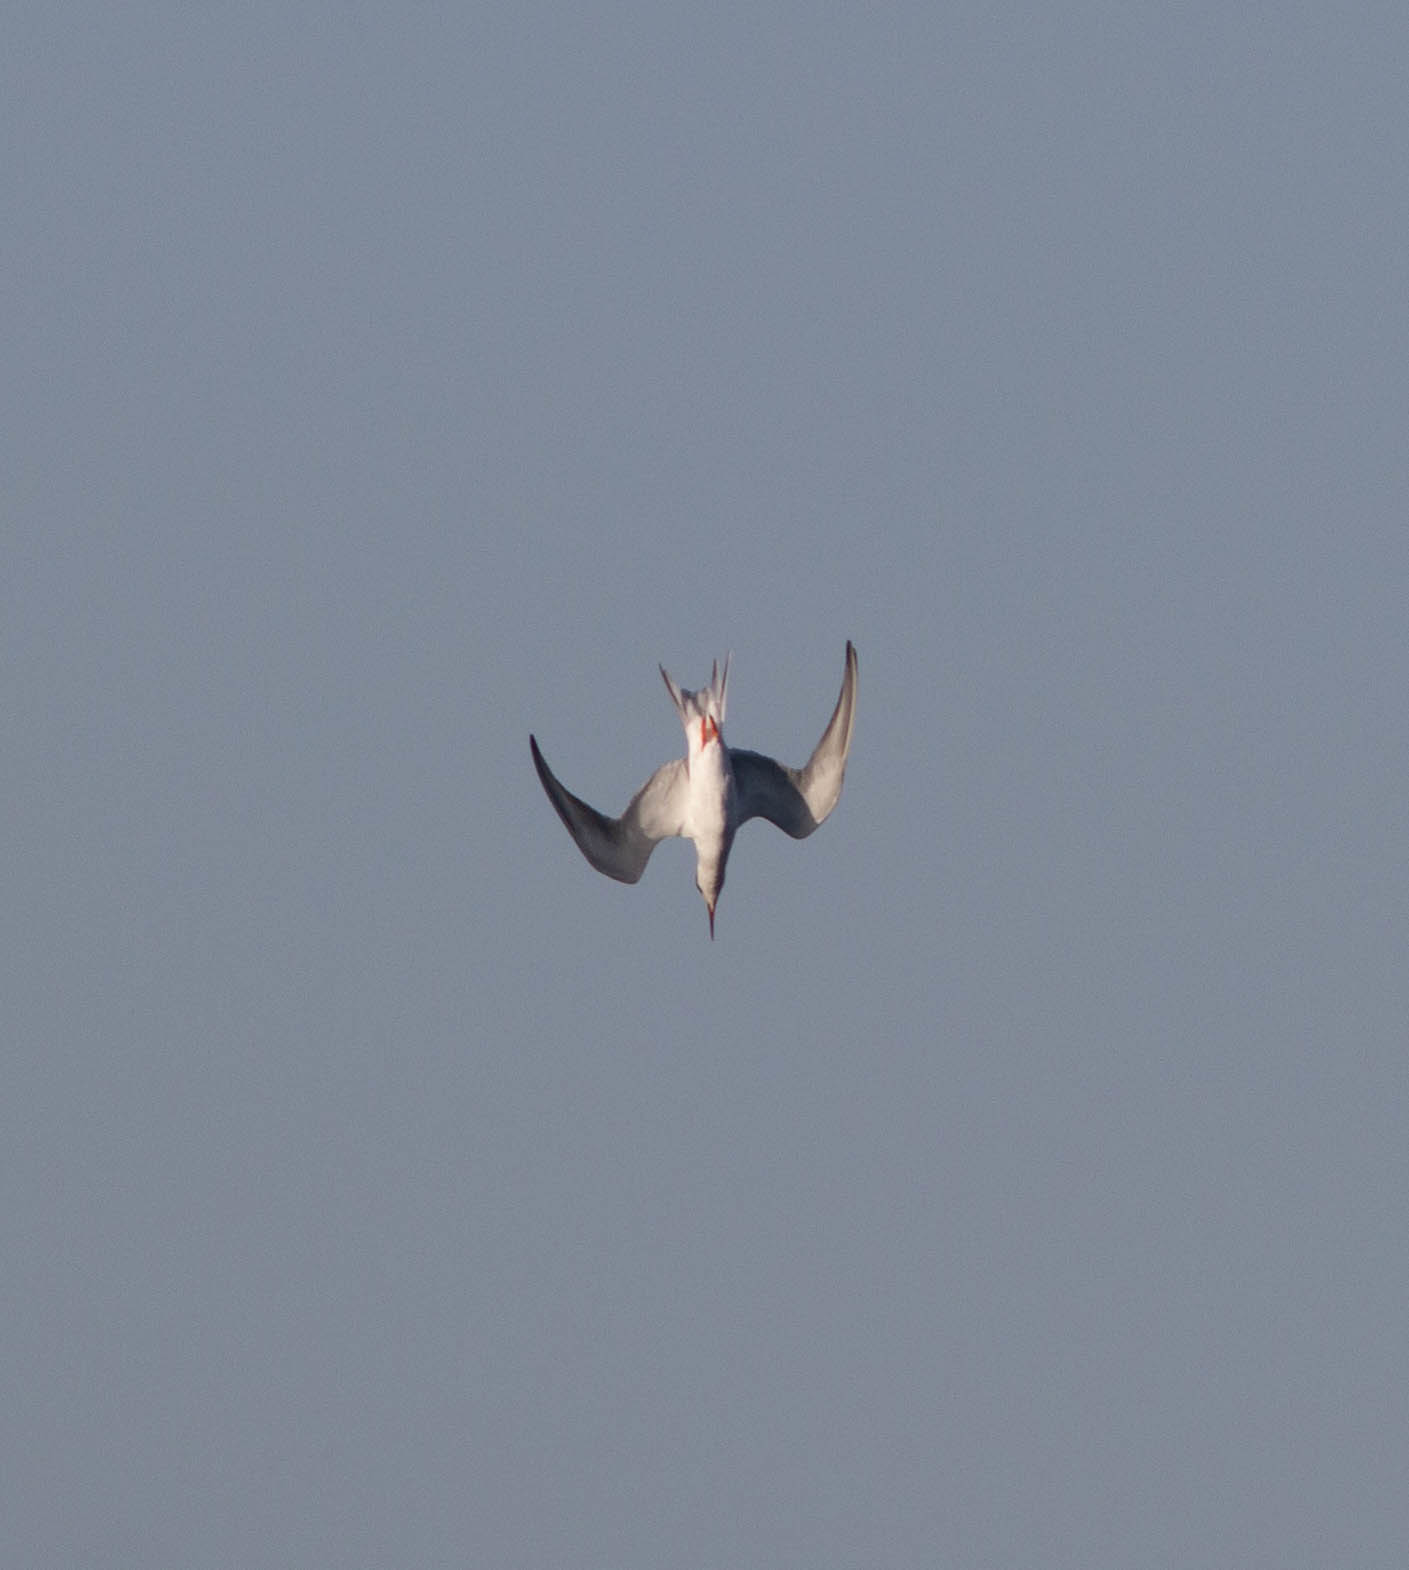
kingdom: Animalia
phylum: Chordata
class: Aves
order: Charadriiformes
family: Laridae
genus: Sterna
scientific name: Sterna forsteri
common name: Forster's tern
